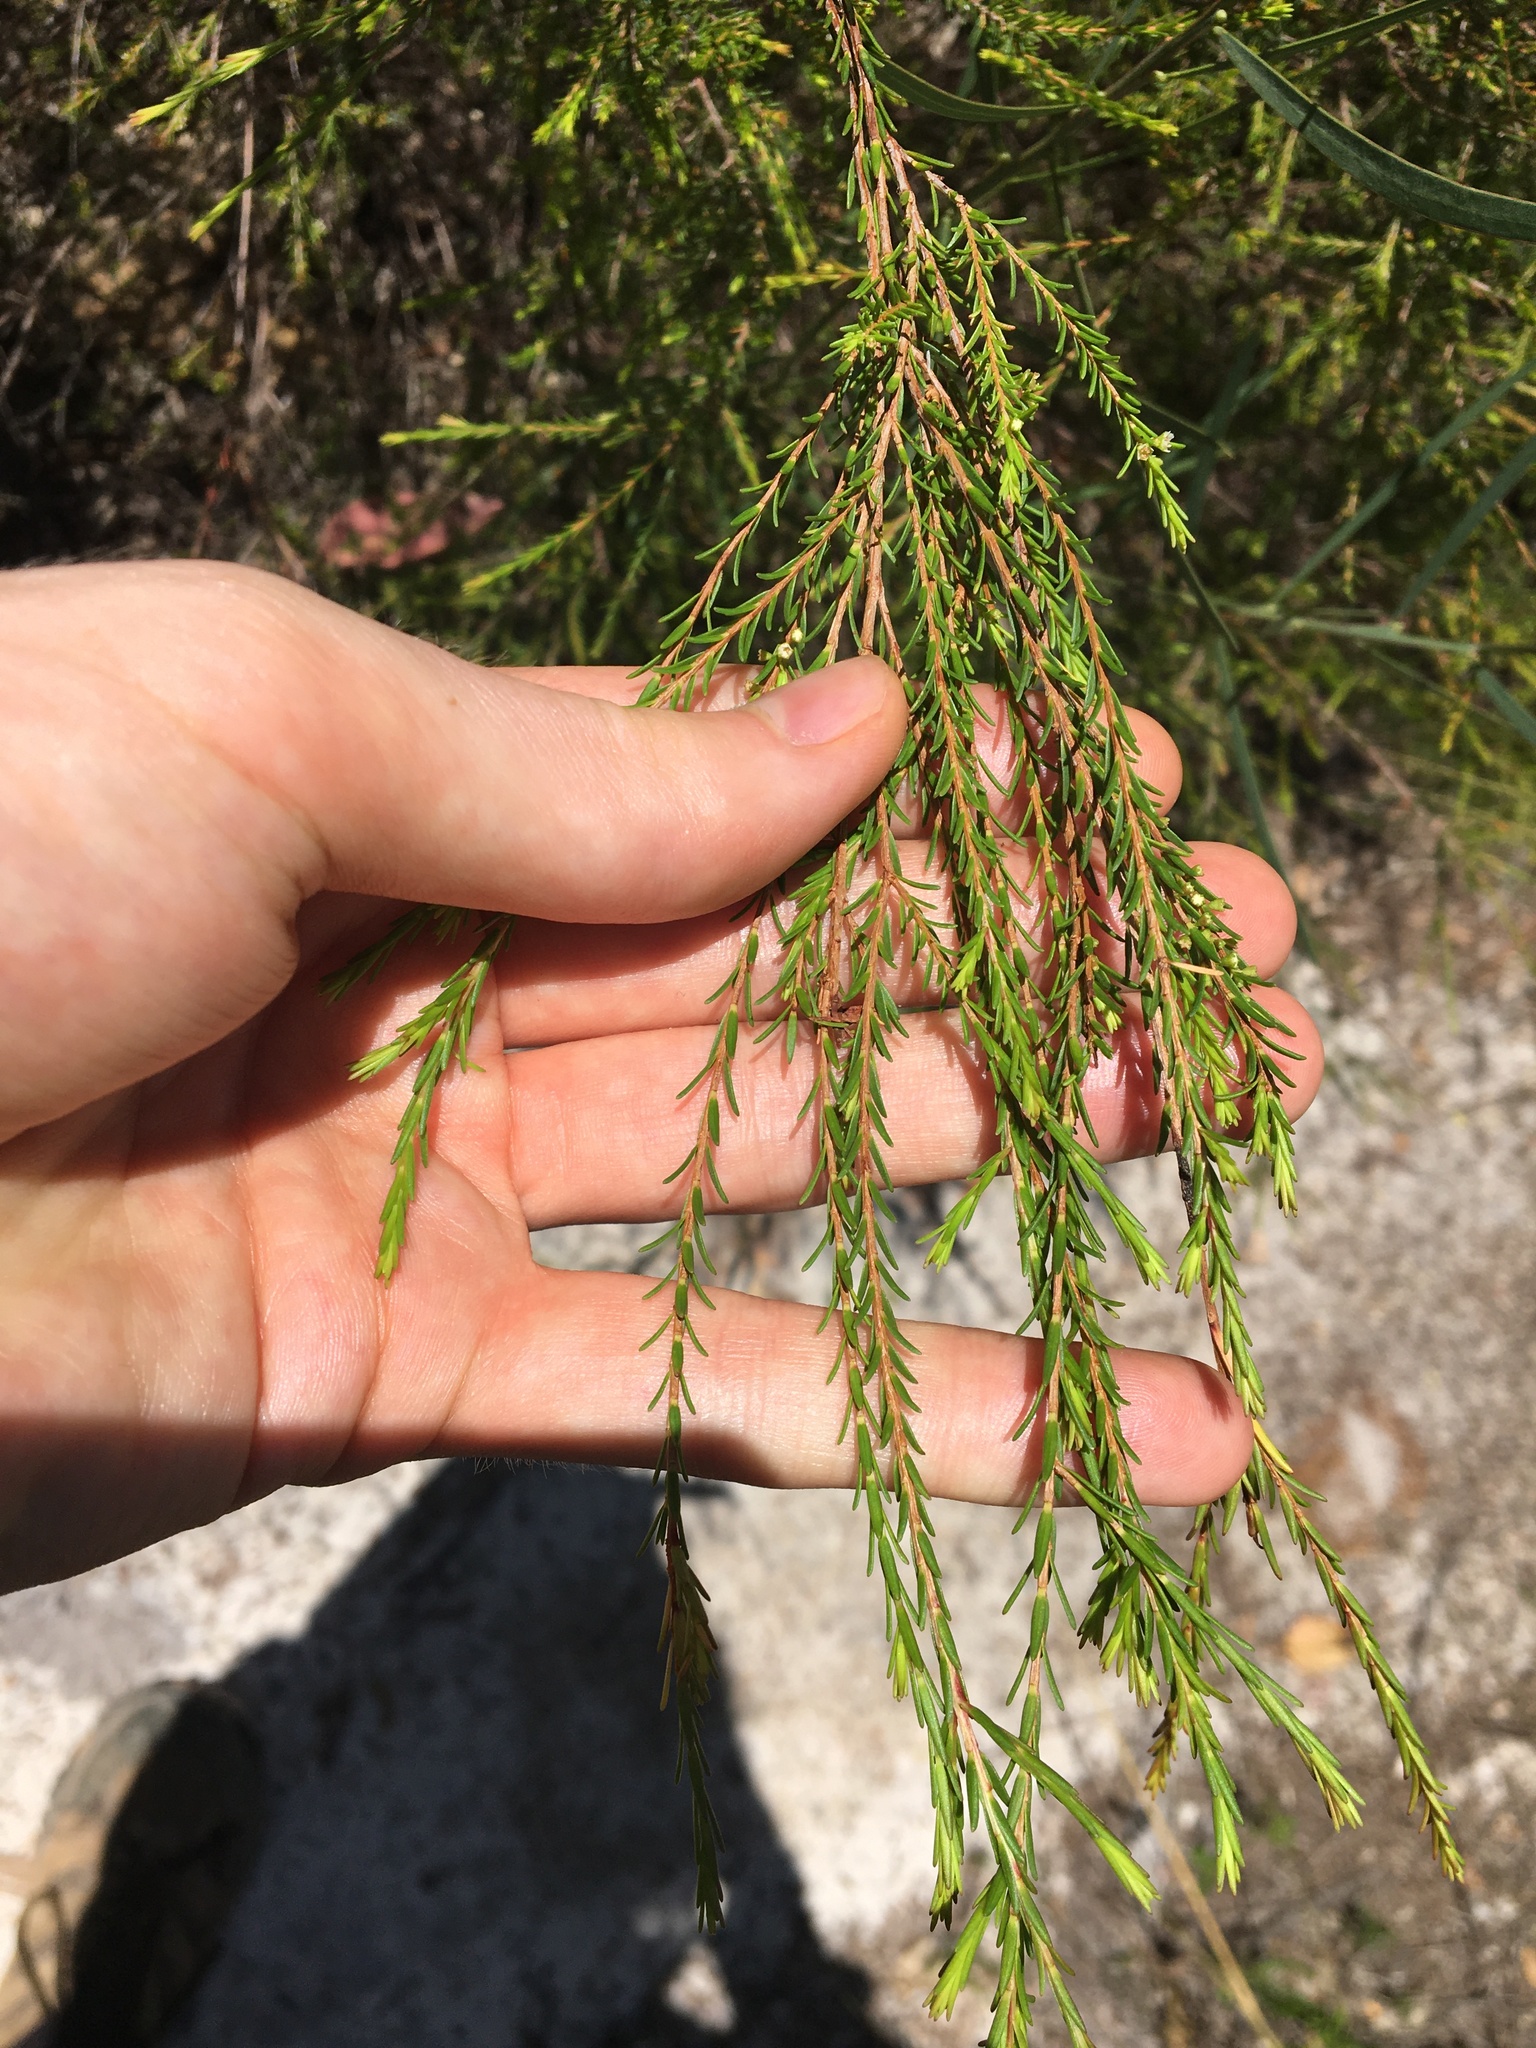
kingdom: Plantae
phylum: Tracheophyta
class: Magnoliopsida
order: Myrtales
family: Myrtaceae
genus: Ochrosperma
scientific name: Ochrosperma lineare
